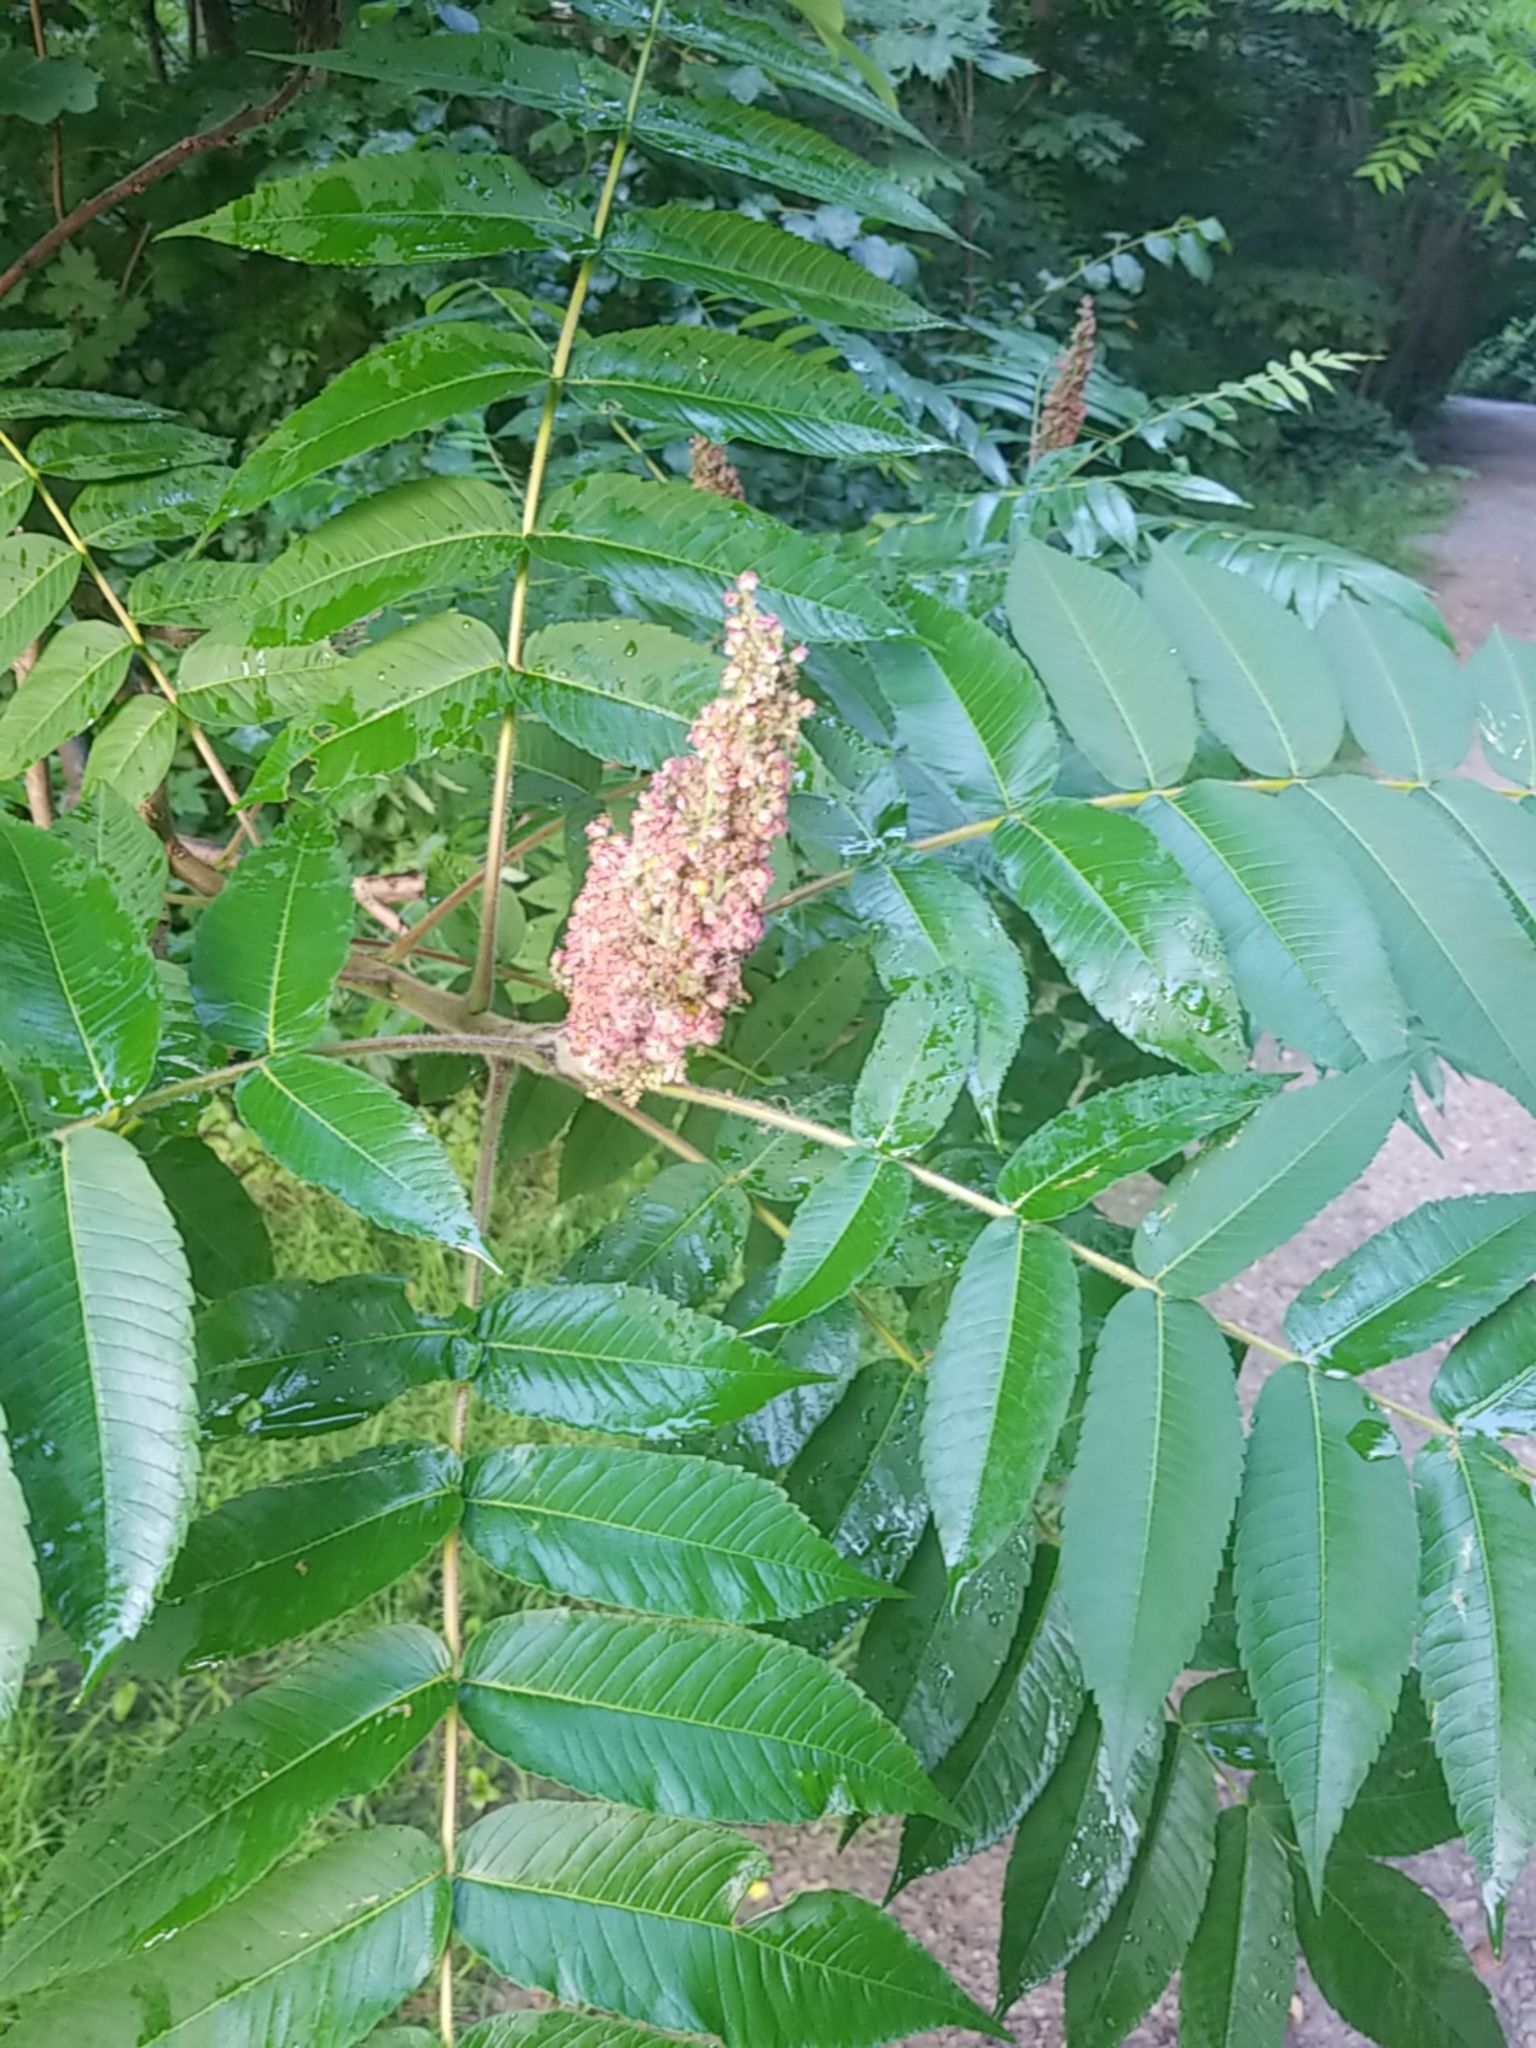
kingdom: Plantae
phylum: Tracheophyta
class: Magnoliopsida
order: Sapindales
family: Anacardiaceae
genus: Rhus
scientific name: Rhus typhina
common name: Staghorn sumac
